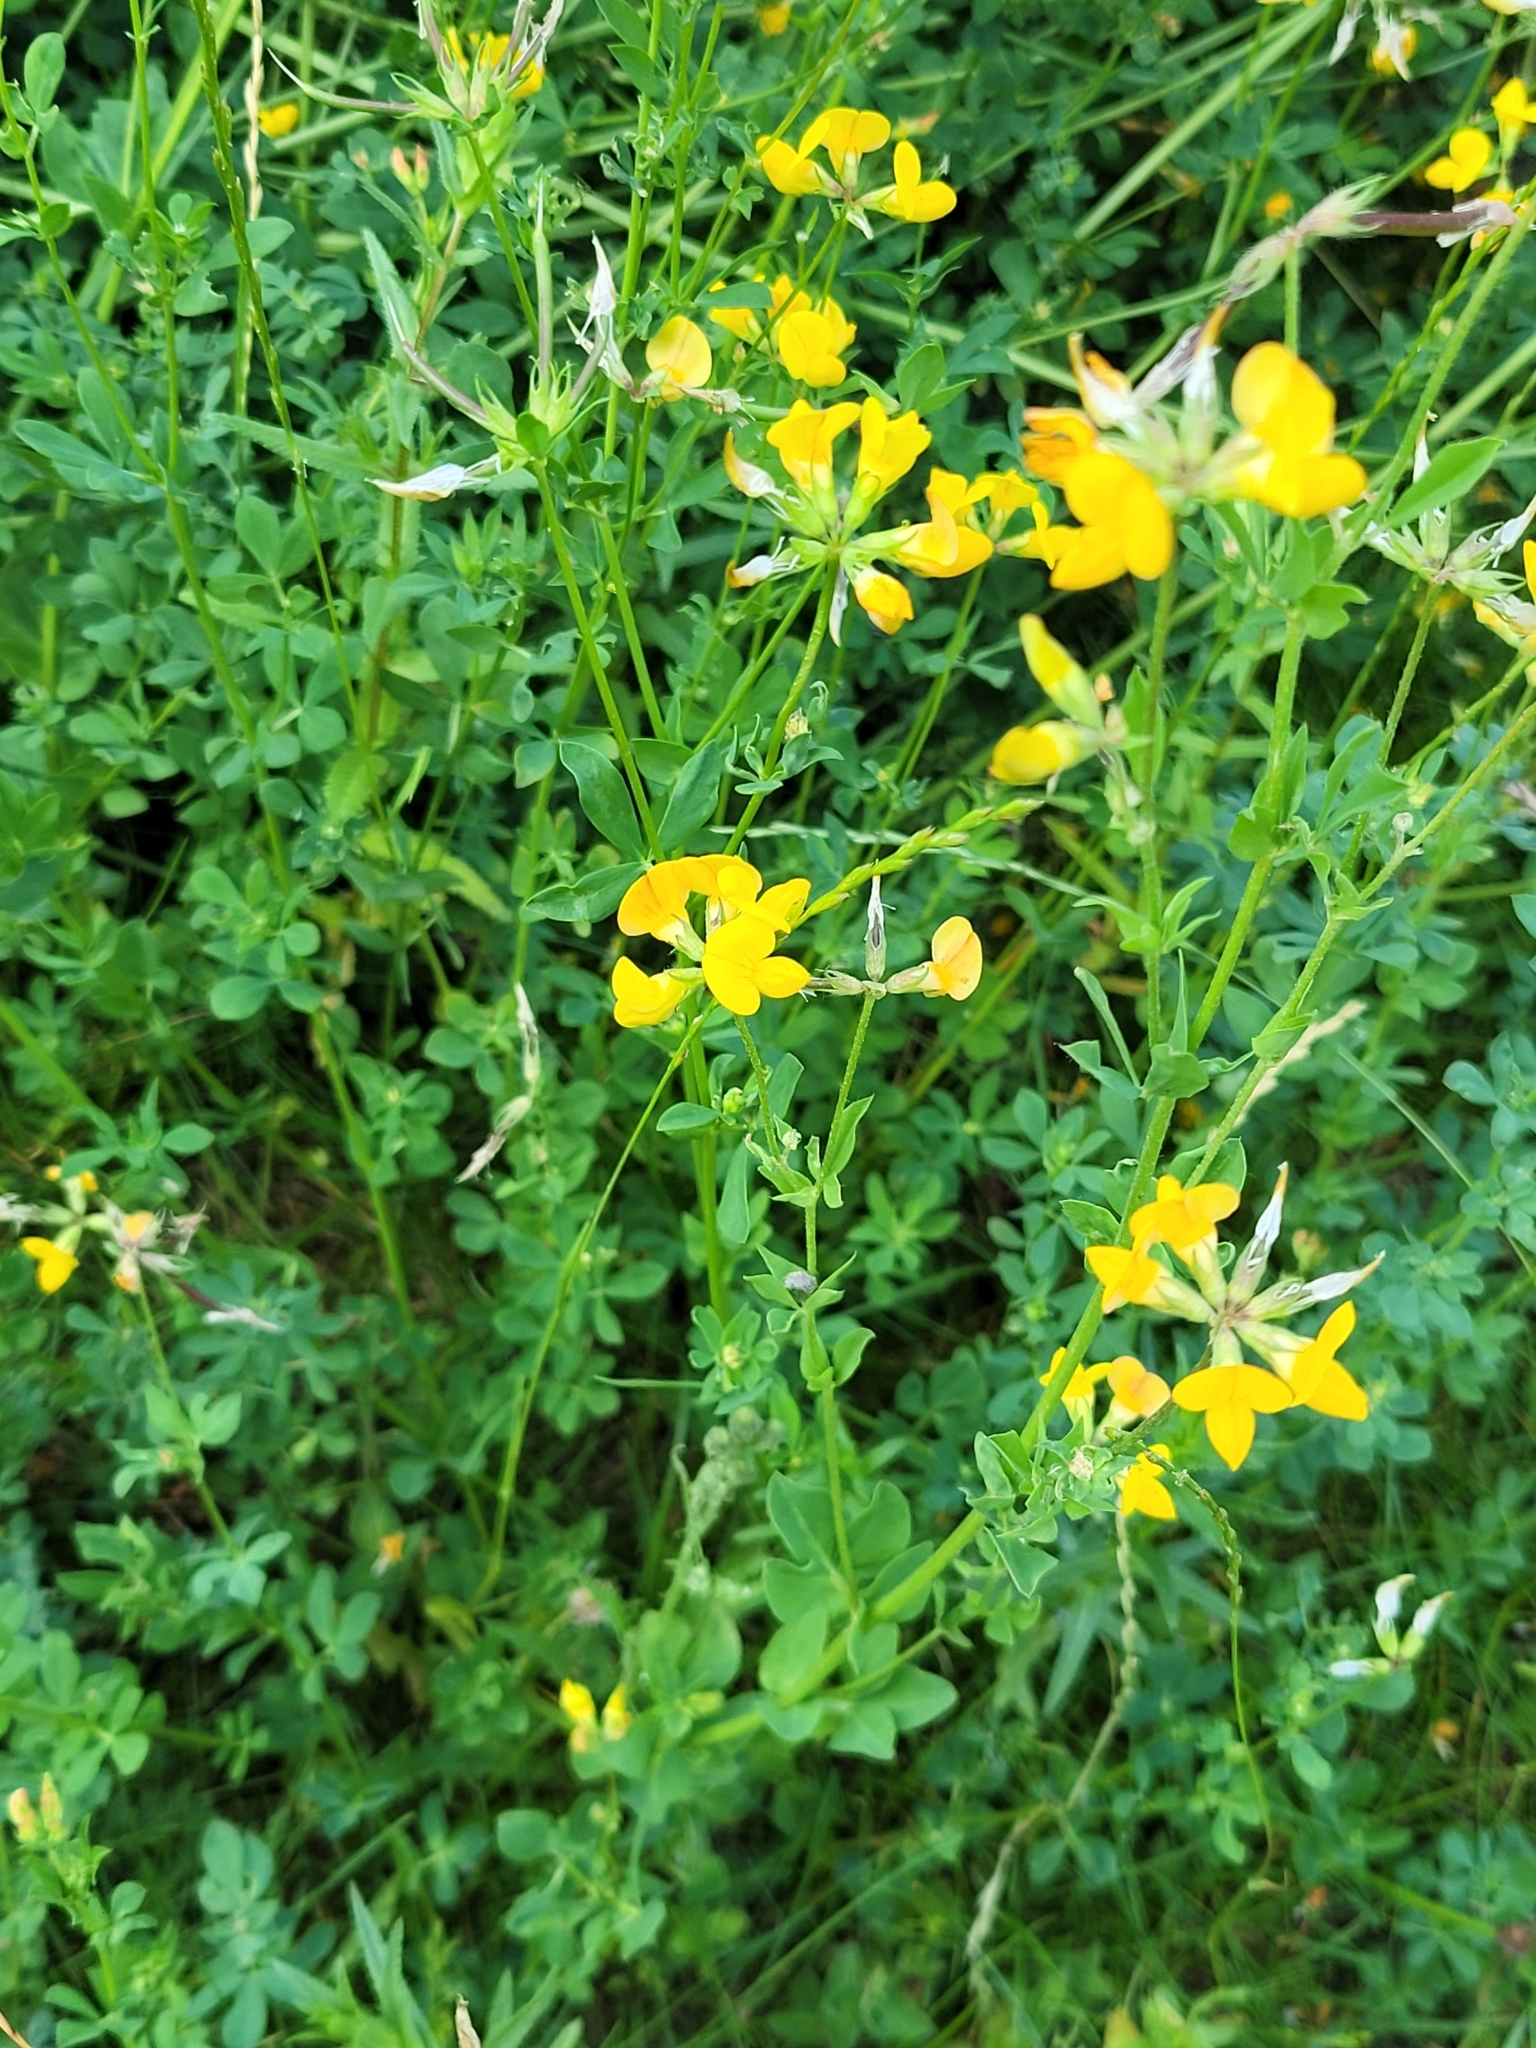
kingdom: Plantae
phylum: Tracheophyta
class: Magnoliopsida
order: Fabales
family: Fabaceae
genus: Lotus
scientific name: Lotus corniculatus
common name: Common bird's-foot-trefoil
